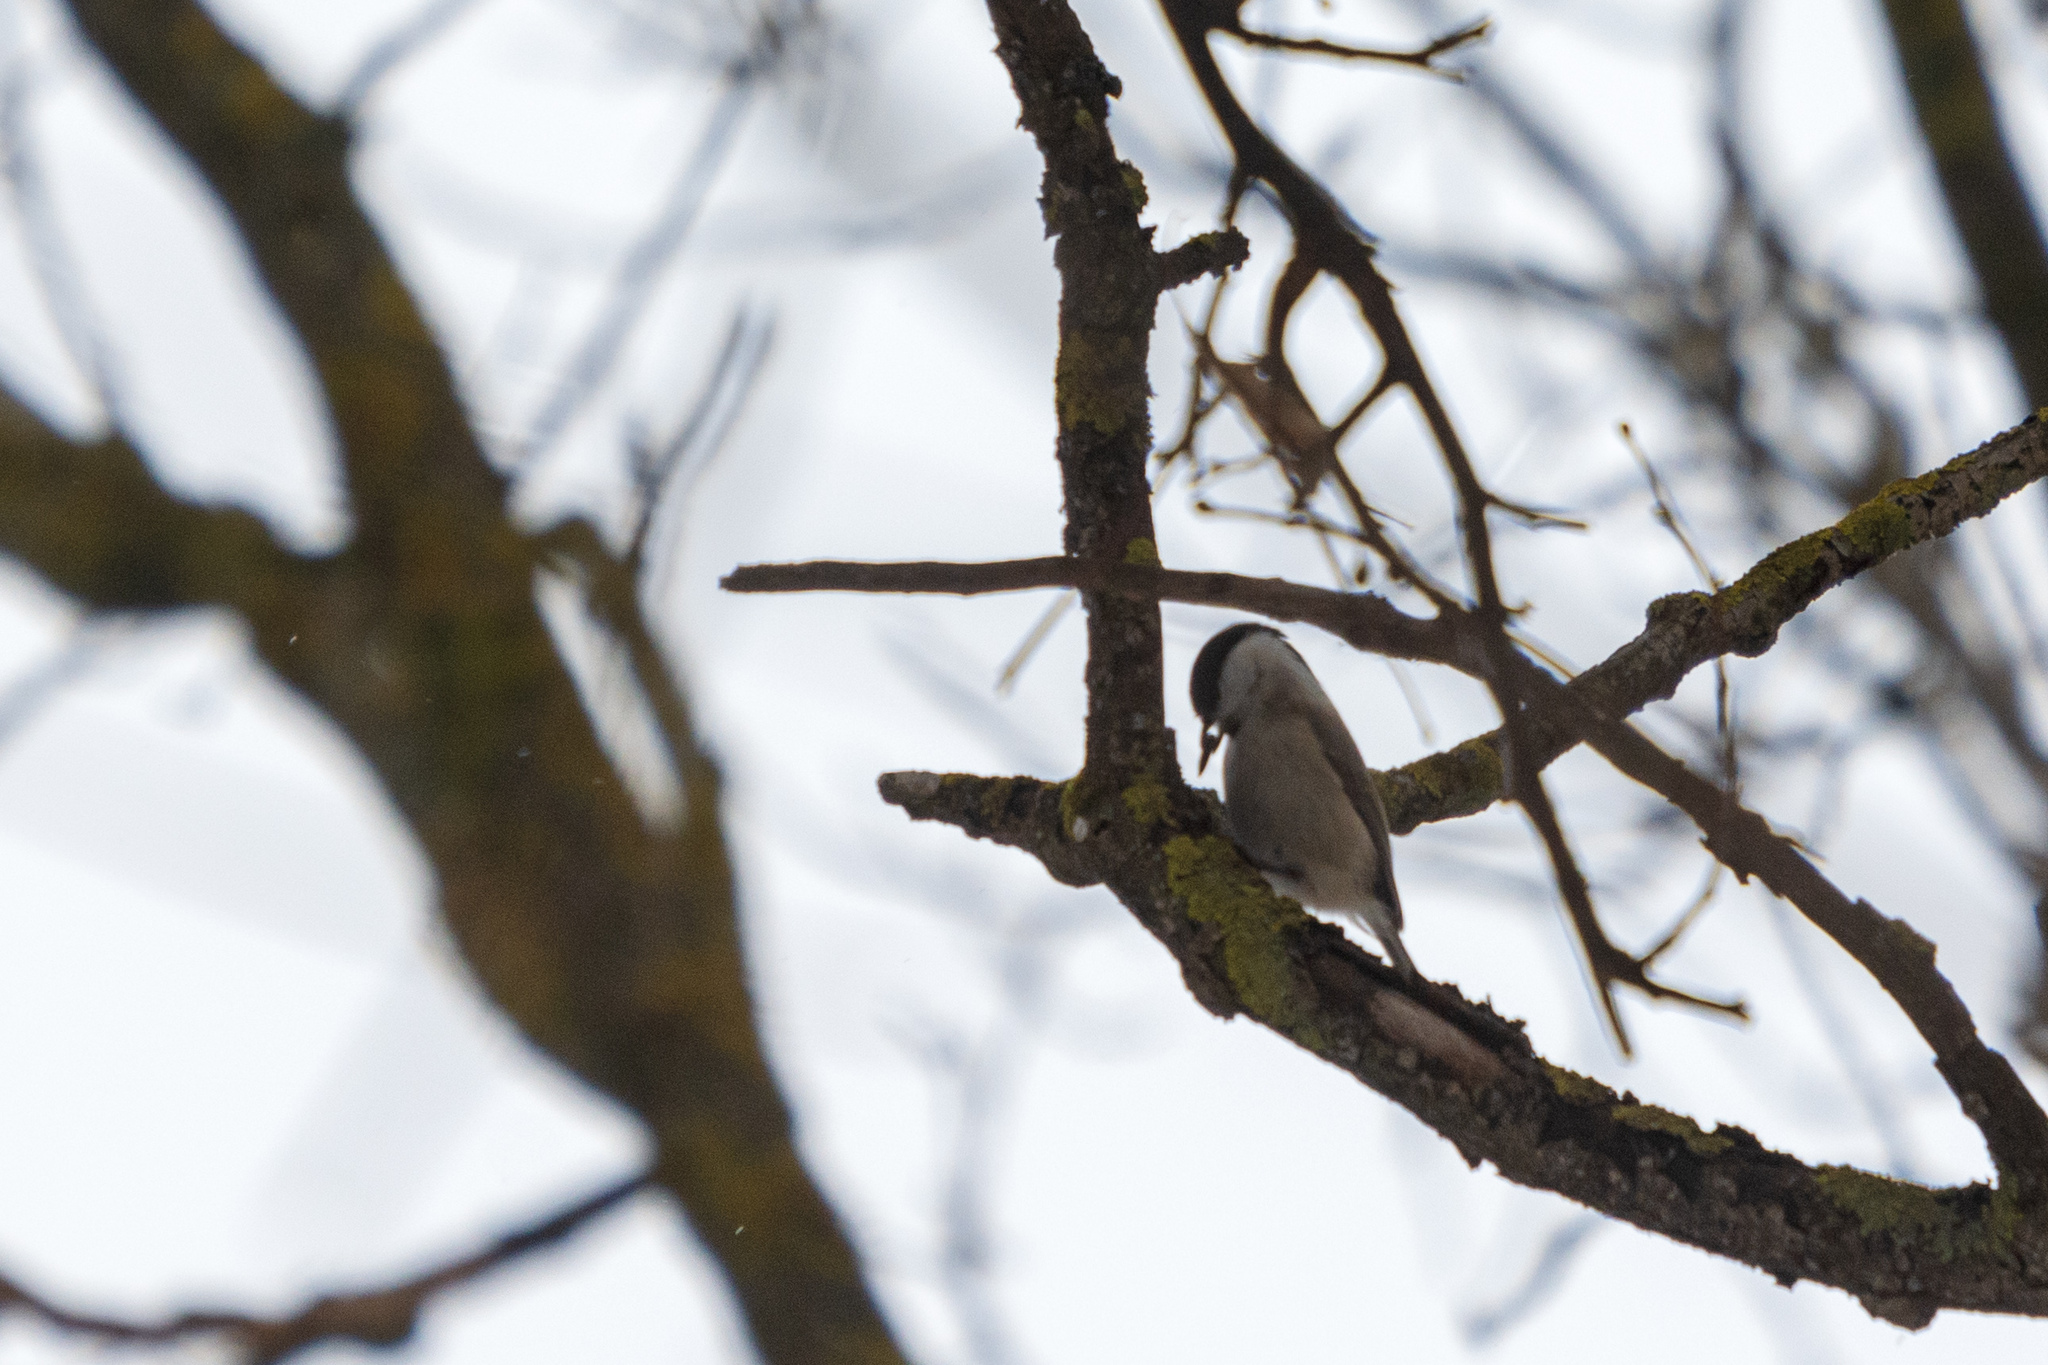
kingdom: Animalia
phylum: Chordata
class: Aves
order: Passeriformes
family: Paridae
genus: Poecile
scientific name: Poecile palustris
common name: Marsh tit
